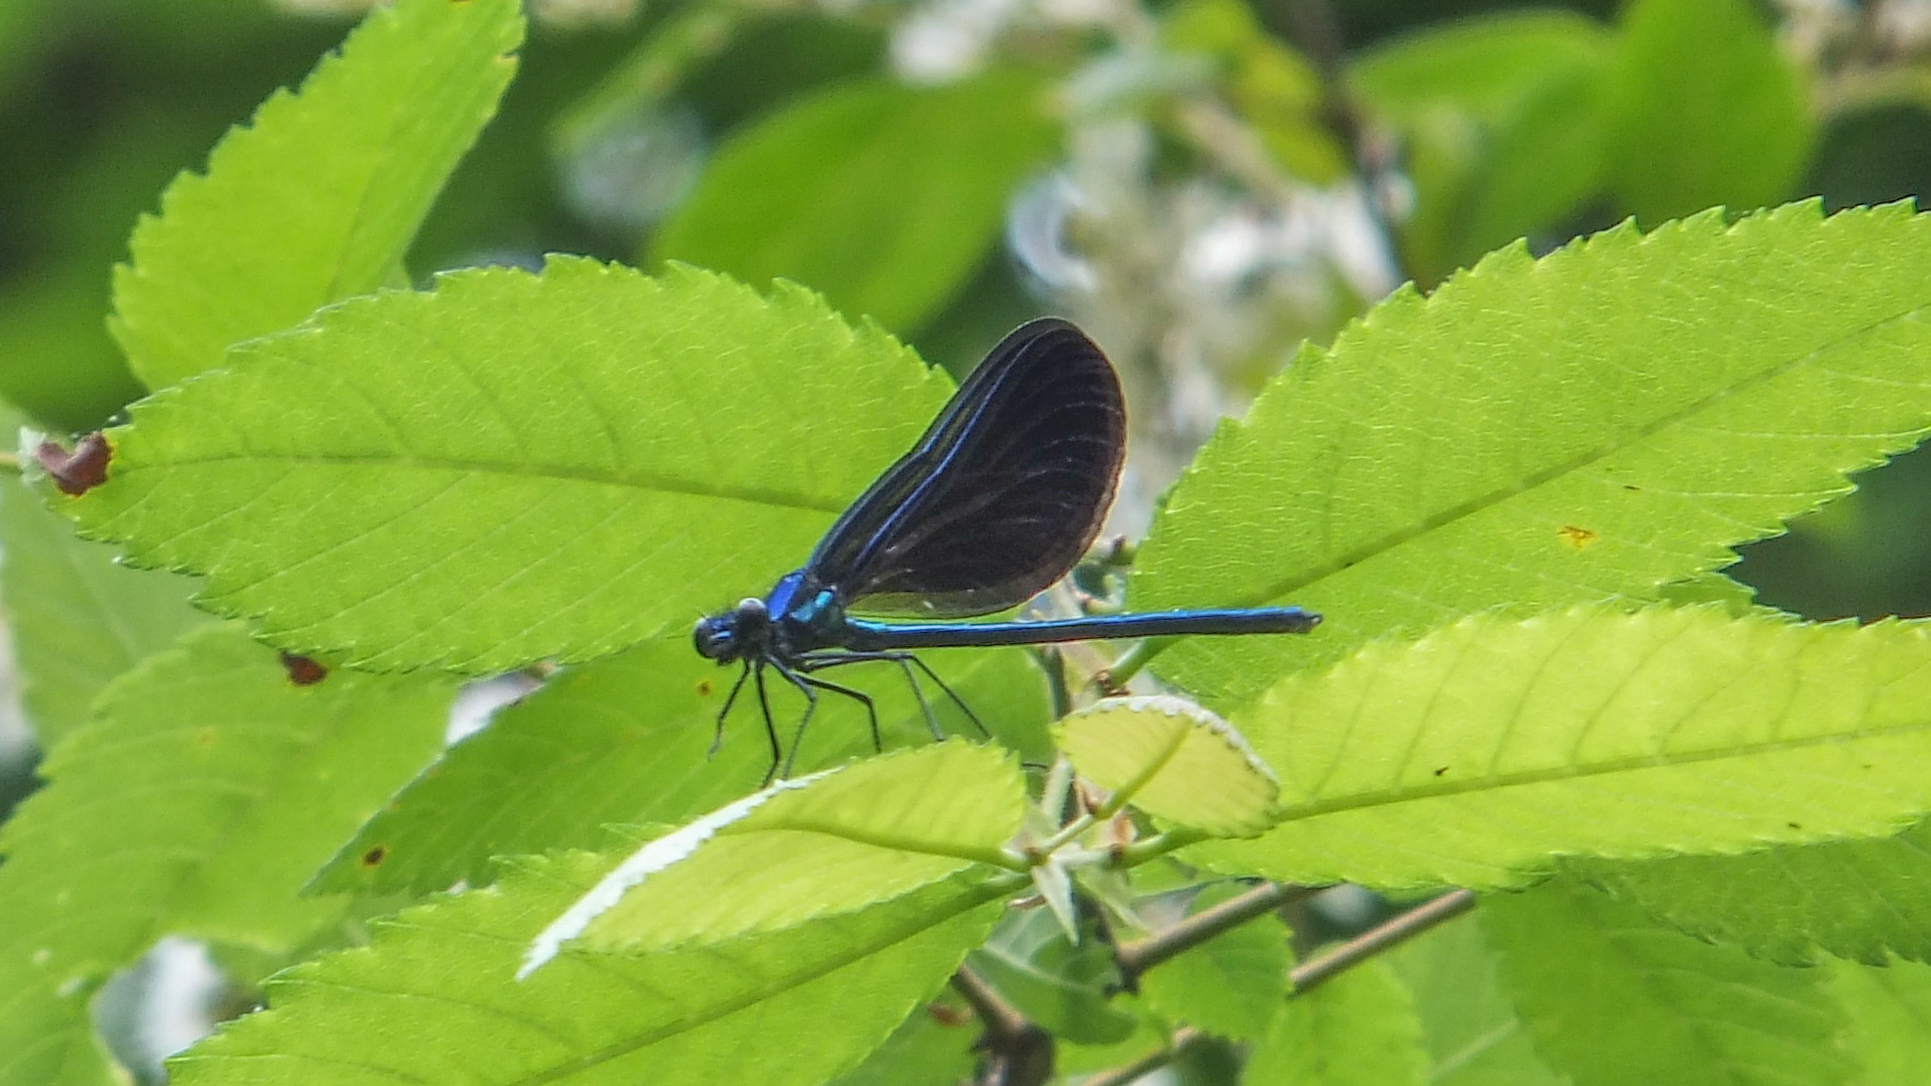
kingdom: Animalia
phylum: Arthropoda
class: Insecta
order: Odonata
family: Calopterygidae
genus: Calopteryx
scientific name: Calopteryx maculata
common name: Ebony jewelwing
